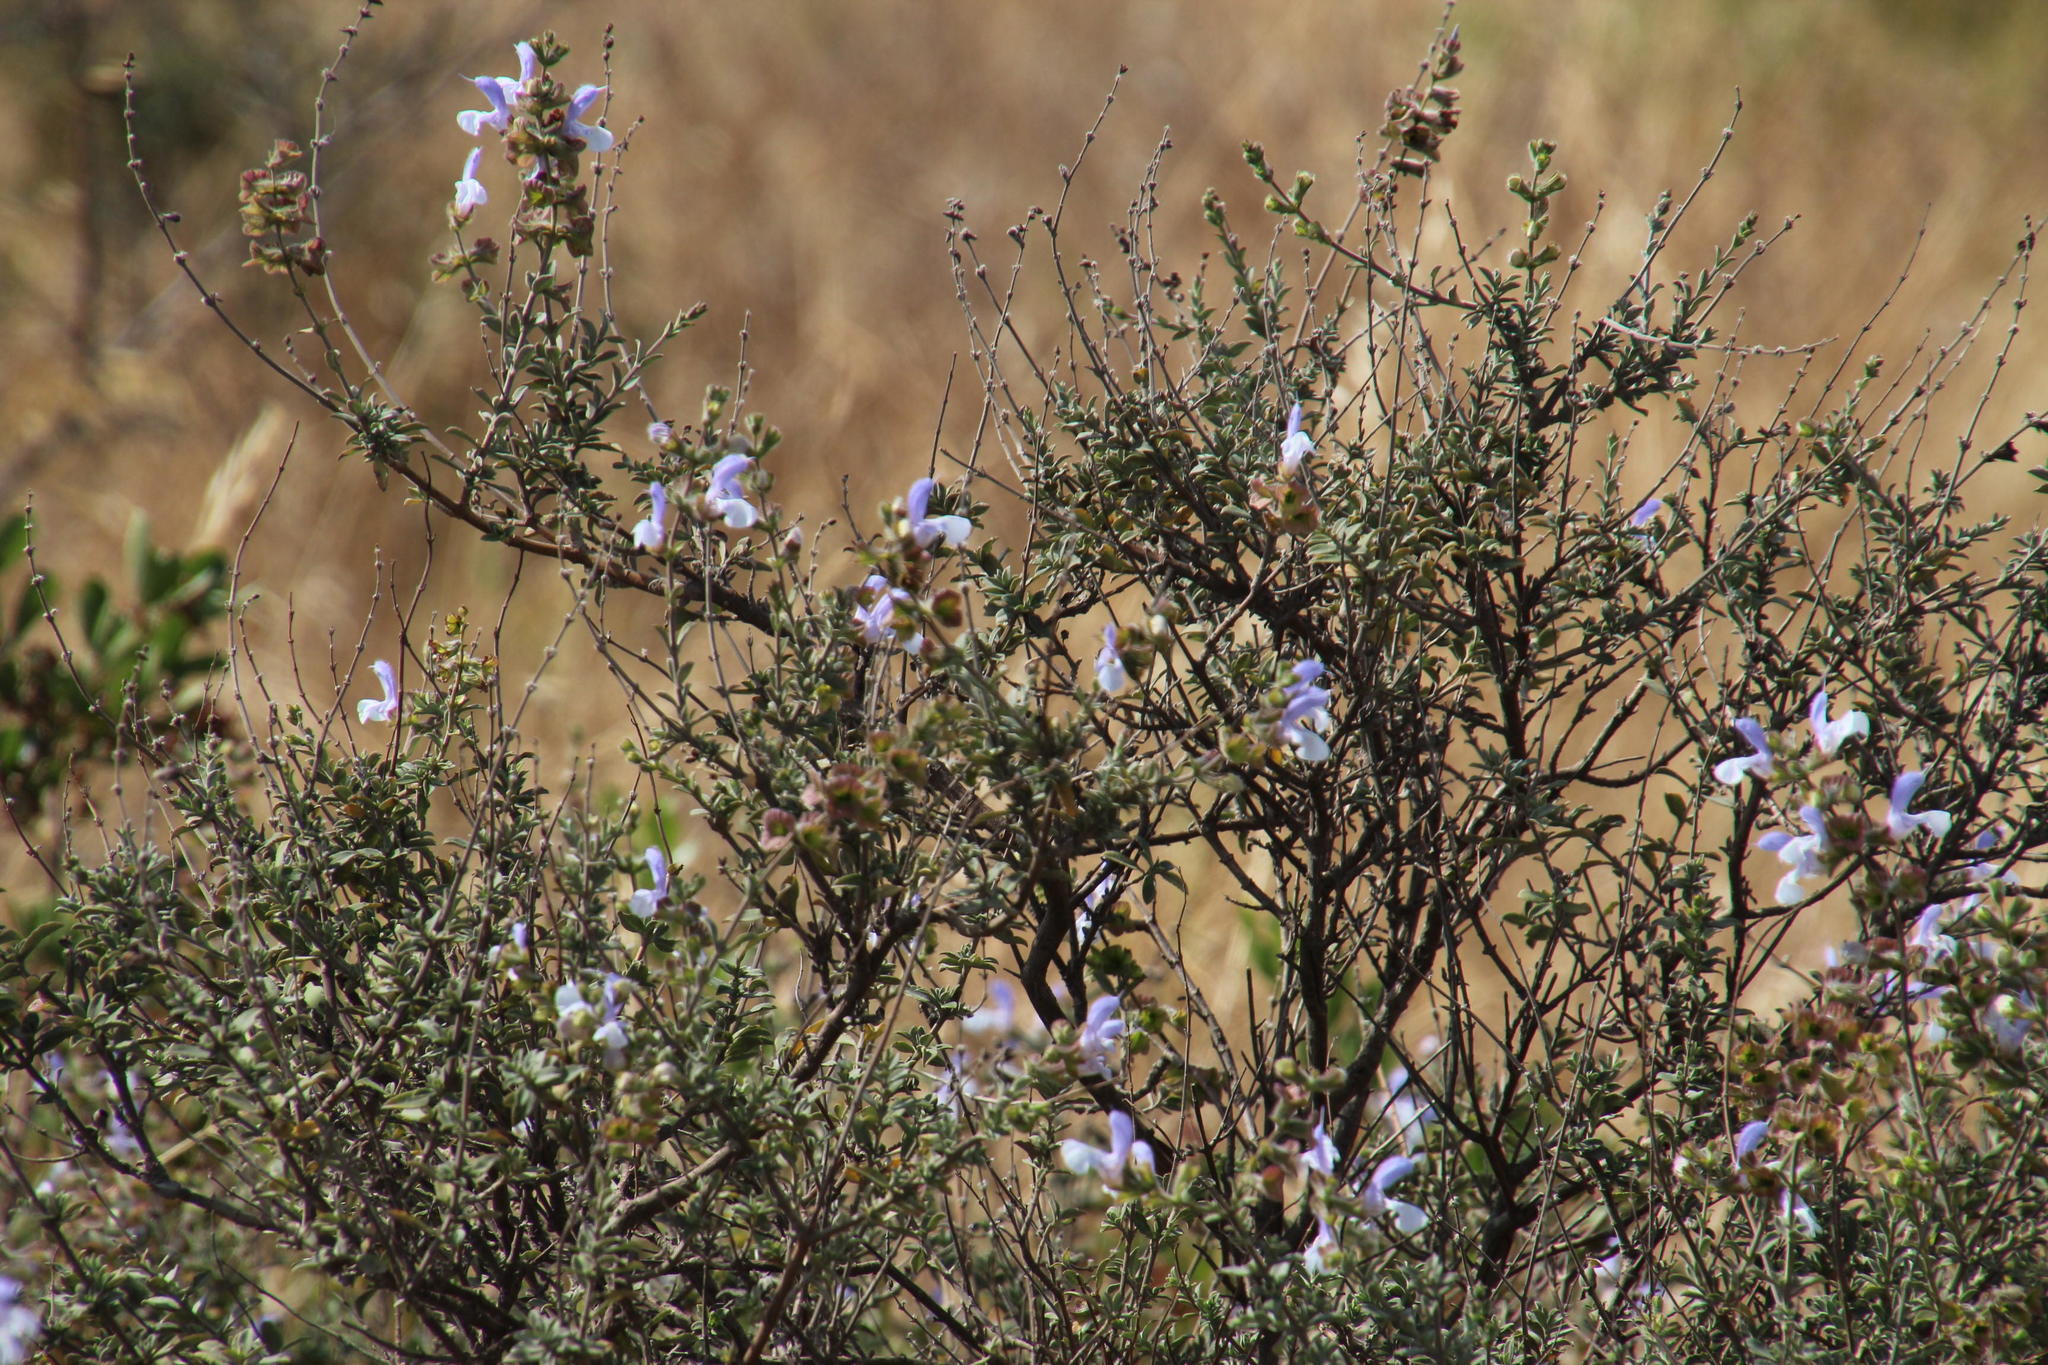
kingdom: Plantae
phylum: Tracheophyta
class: Magnoliopsida
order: Lamiales
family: Lamiaceae
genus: Salvia
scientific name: Salvia africana
